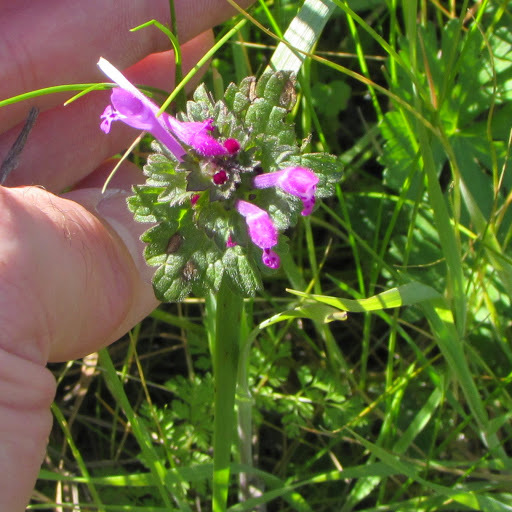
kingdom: Plantae
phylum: Tracheophyta
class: Magnoliopsida
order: Lamiales
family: Lamiaceae
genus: Lamium
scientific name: Lamium amplexicaule
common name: Henbit dead-nettle
